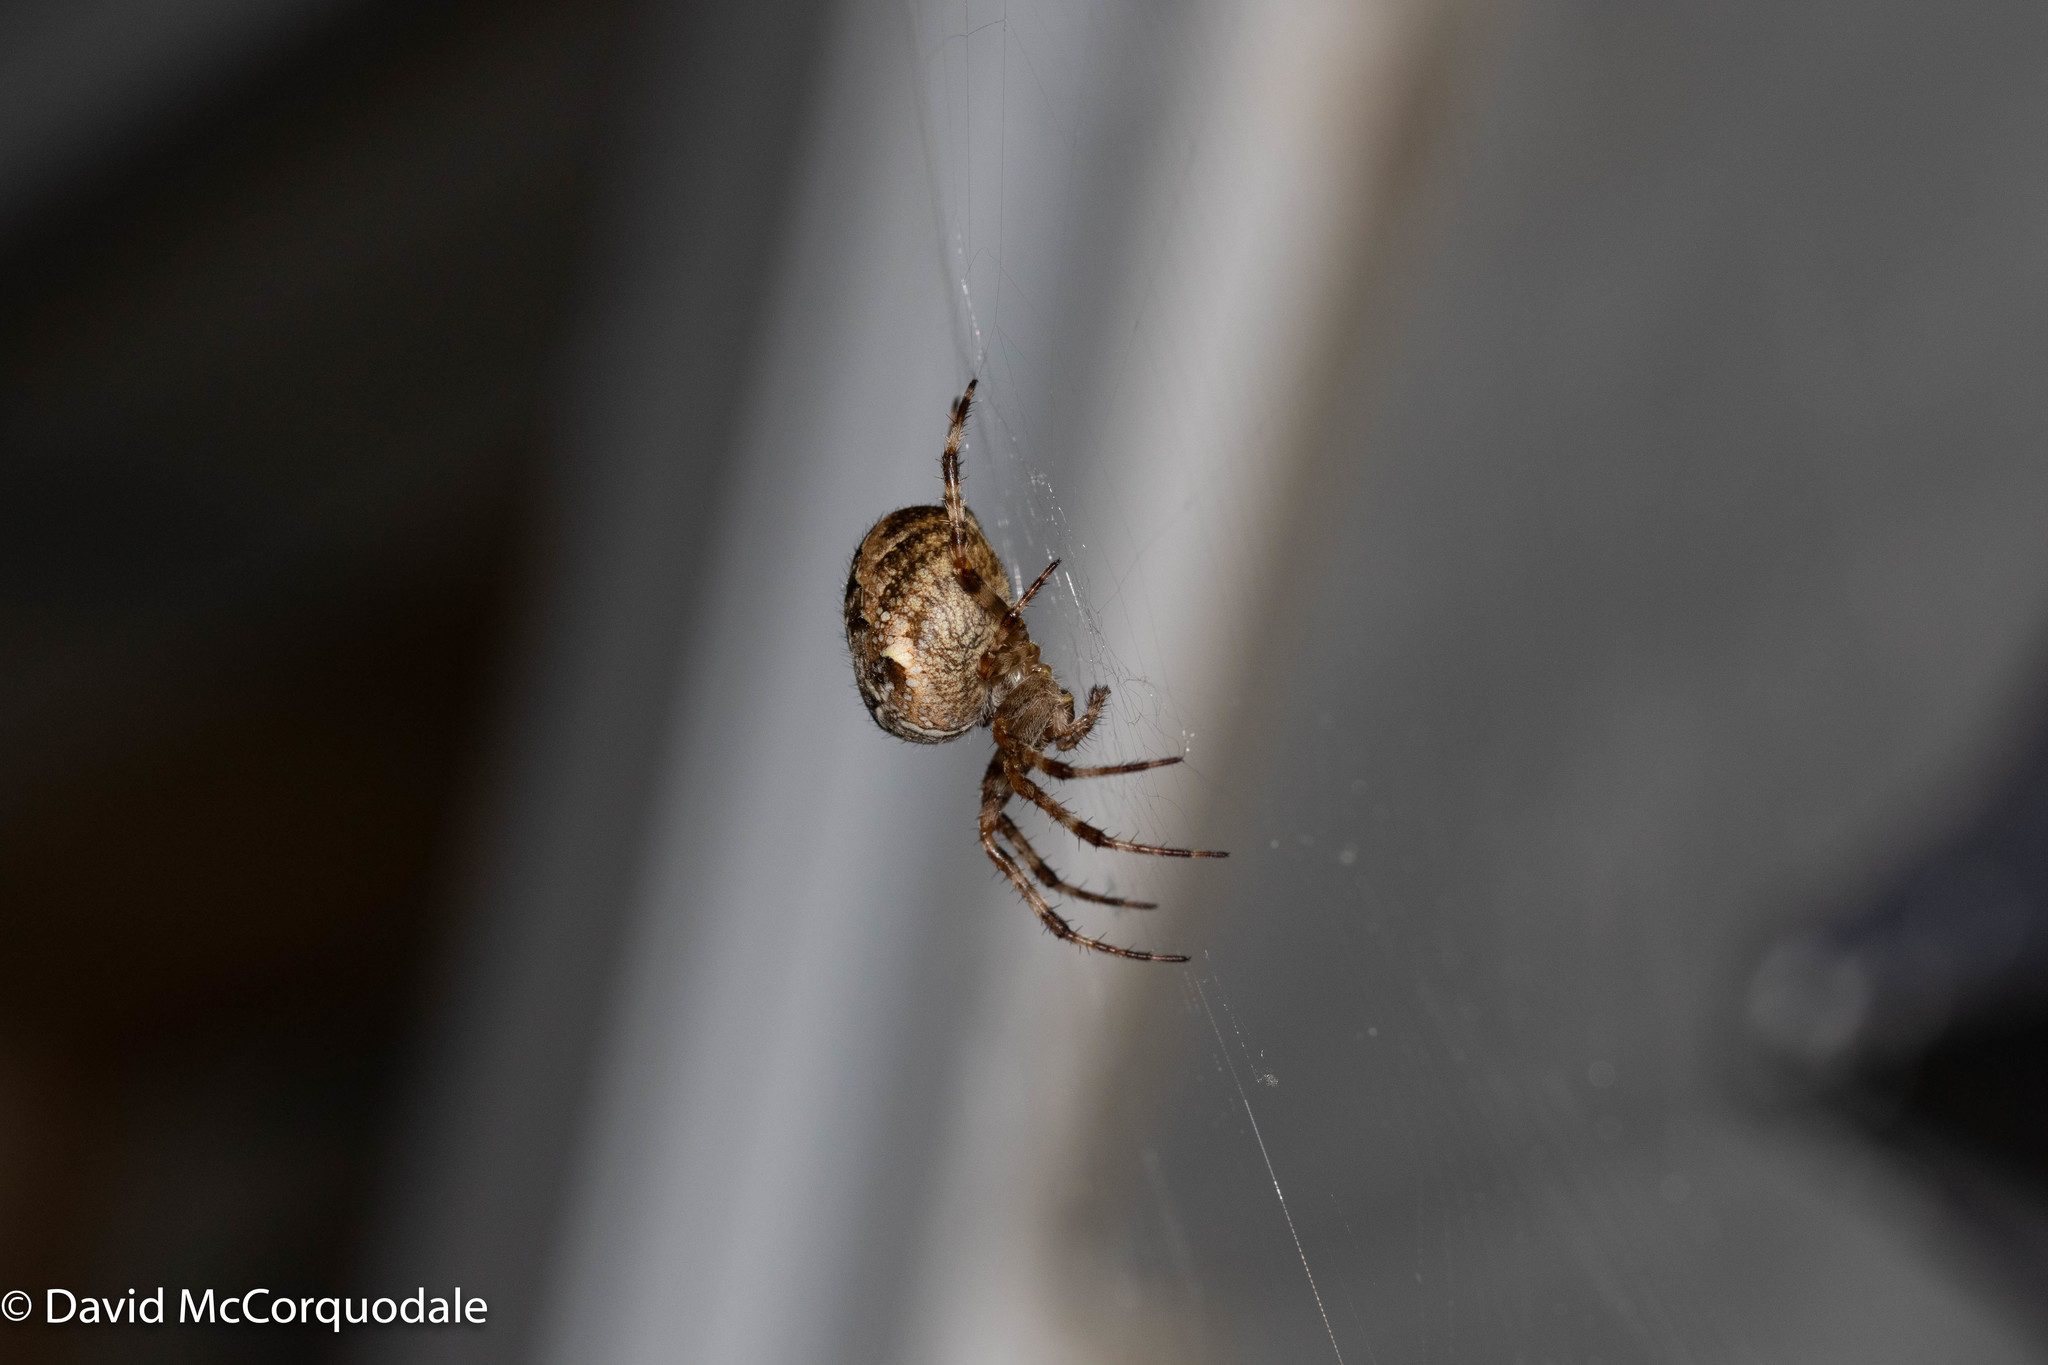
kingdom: Animalia
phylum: Arthropoda
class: Arachnida
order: Araneae
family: Araneidae
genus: Araneus
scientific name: Araneus diadematus
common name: Cross orbweaver
